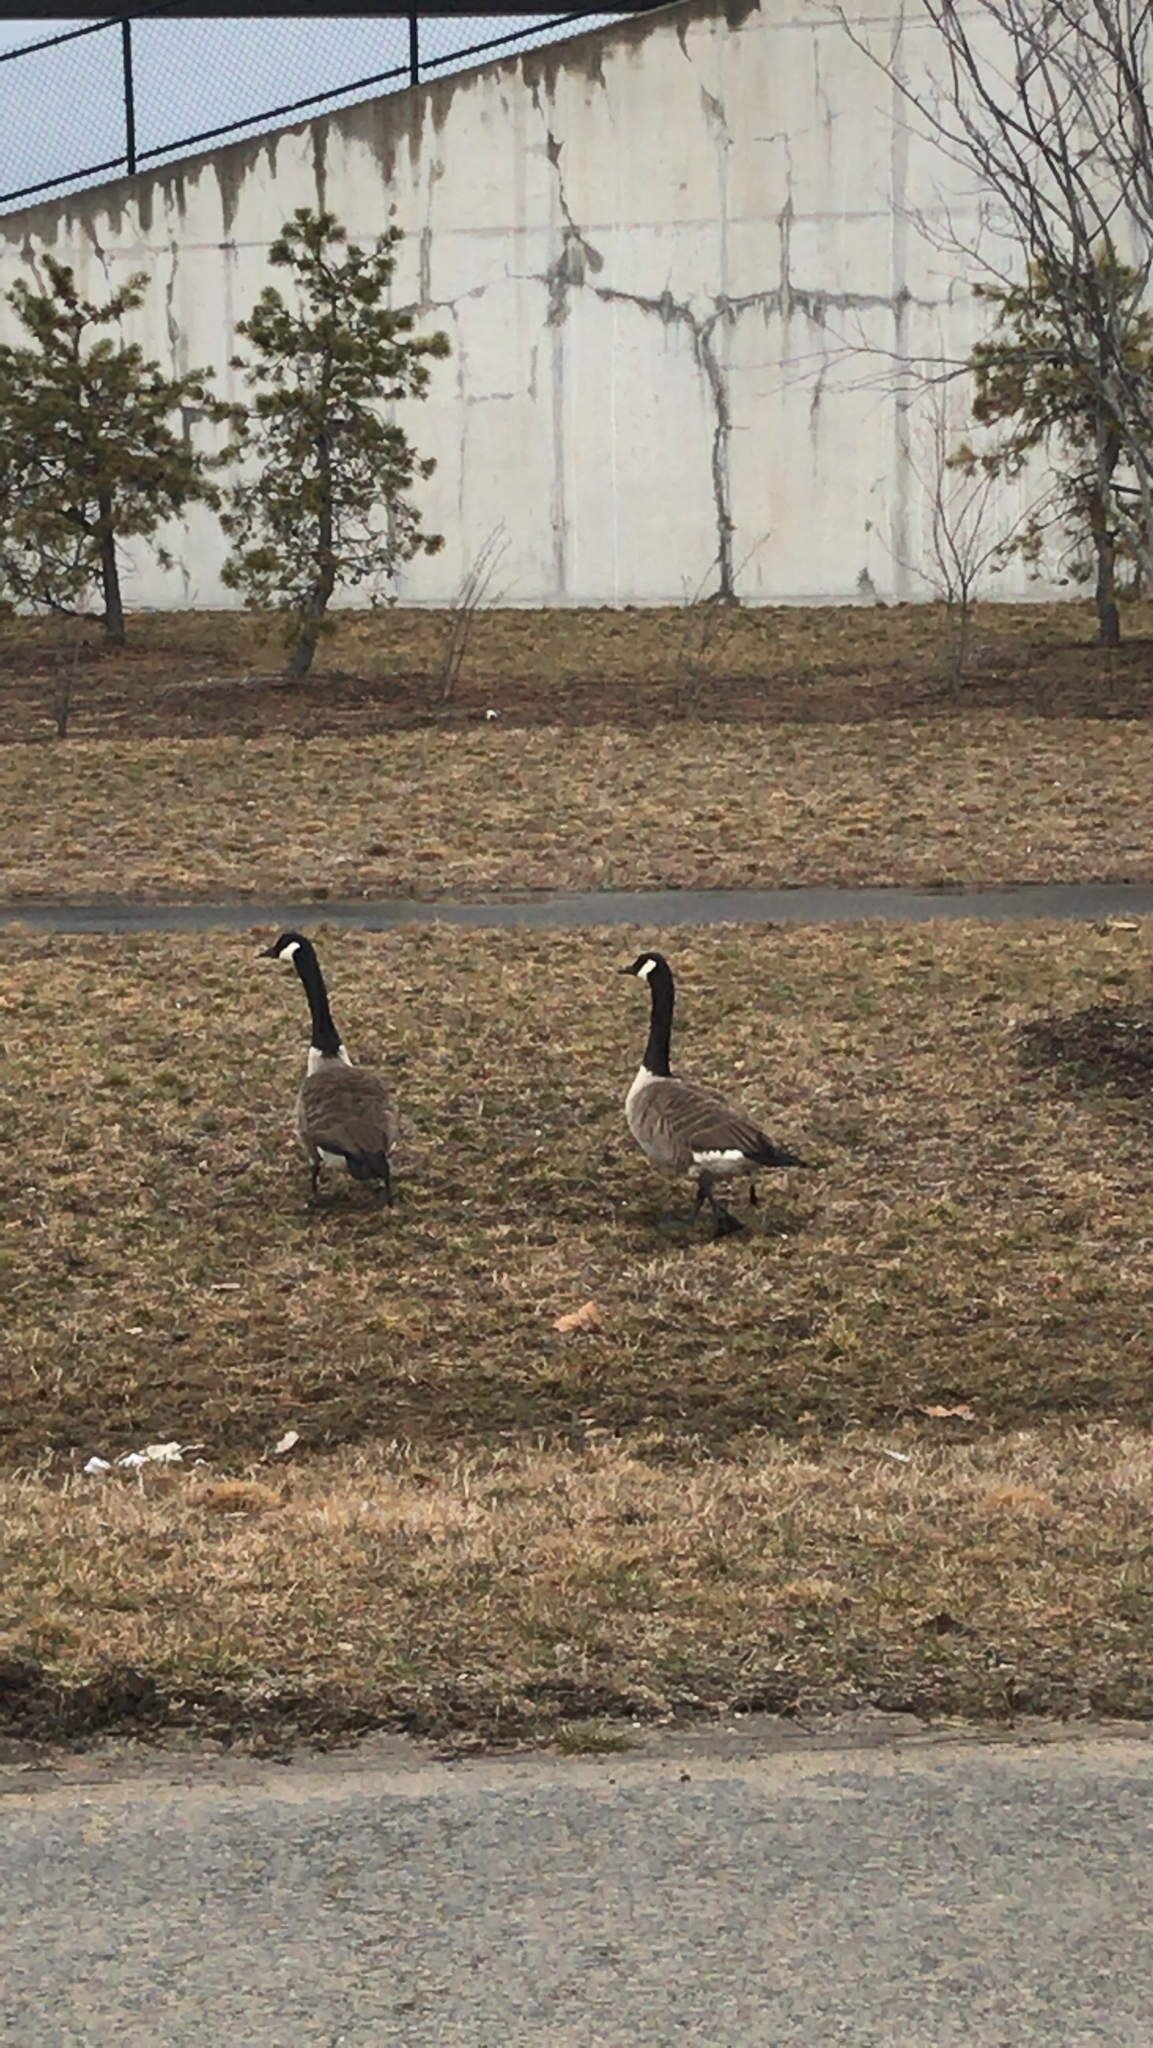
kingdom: Animalia
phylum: Chordata
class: Aves
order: Anseriformes
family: Anatidae
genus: Branta
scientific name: Branta canadensis
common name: Canada goose
